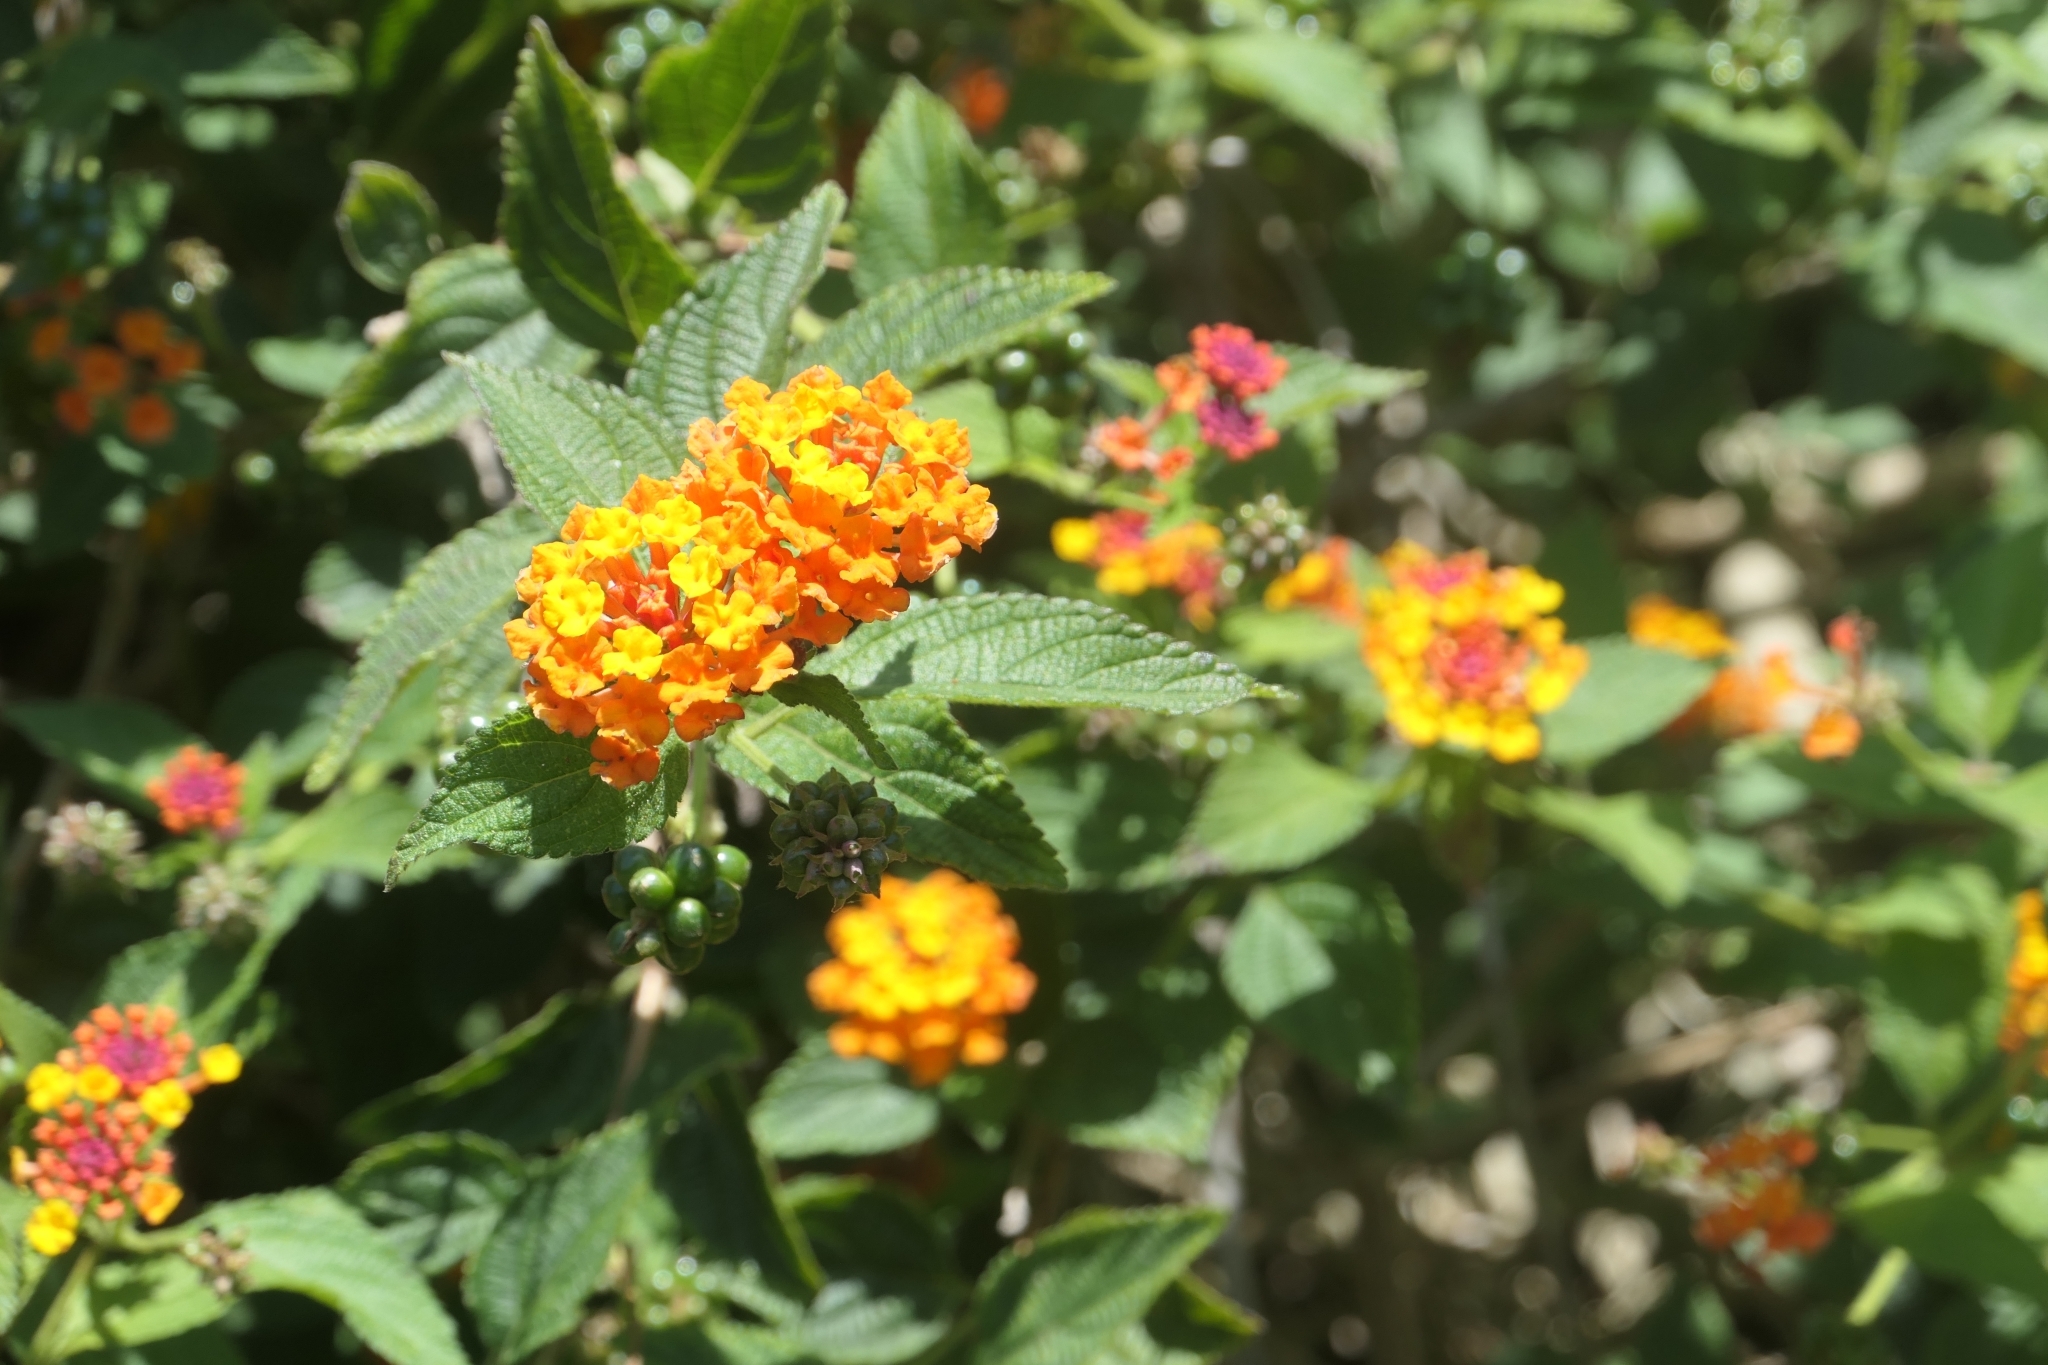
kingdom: Plantae
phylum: Tracheophyta
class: Magnoliopsida
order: Lamiales
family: Verbenaceae
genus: Lantana
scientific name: Lantana camara
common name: Lantana
